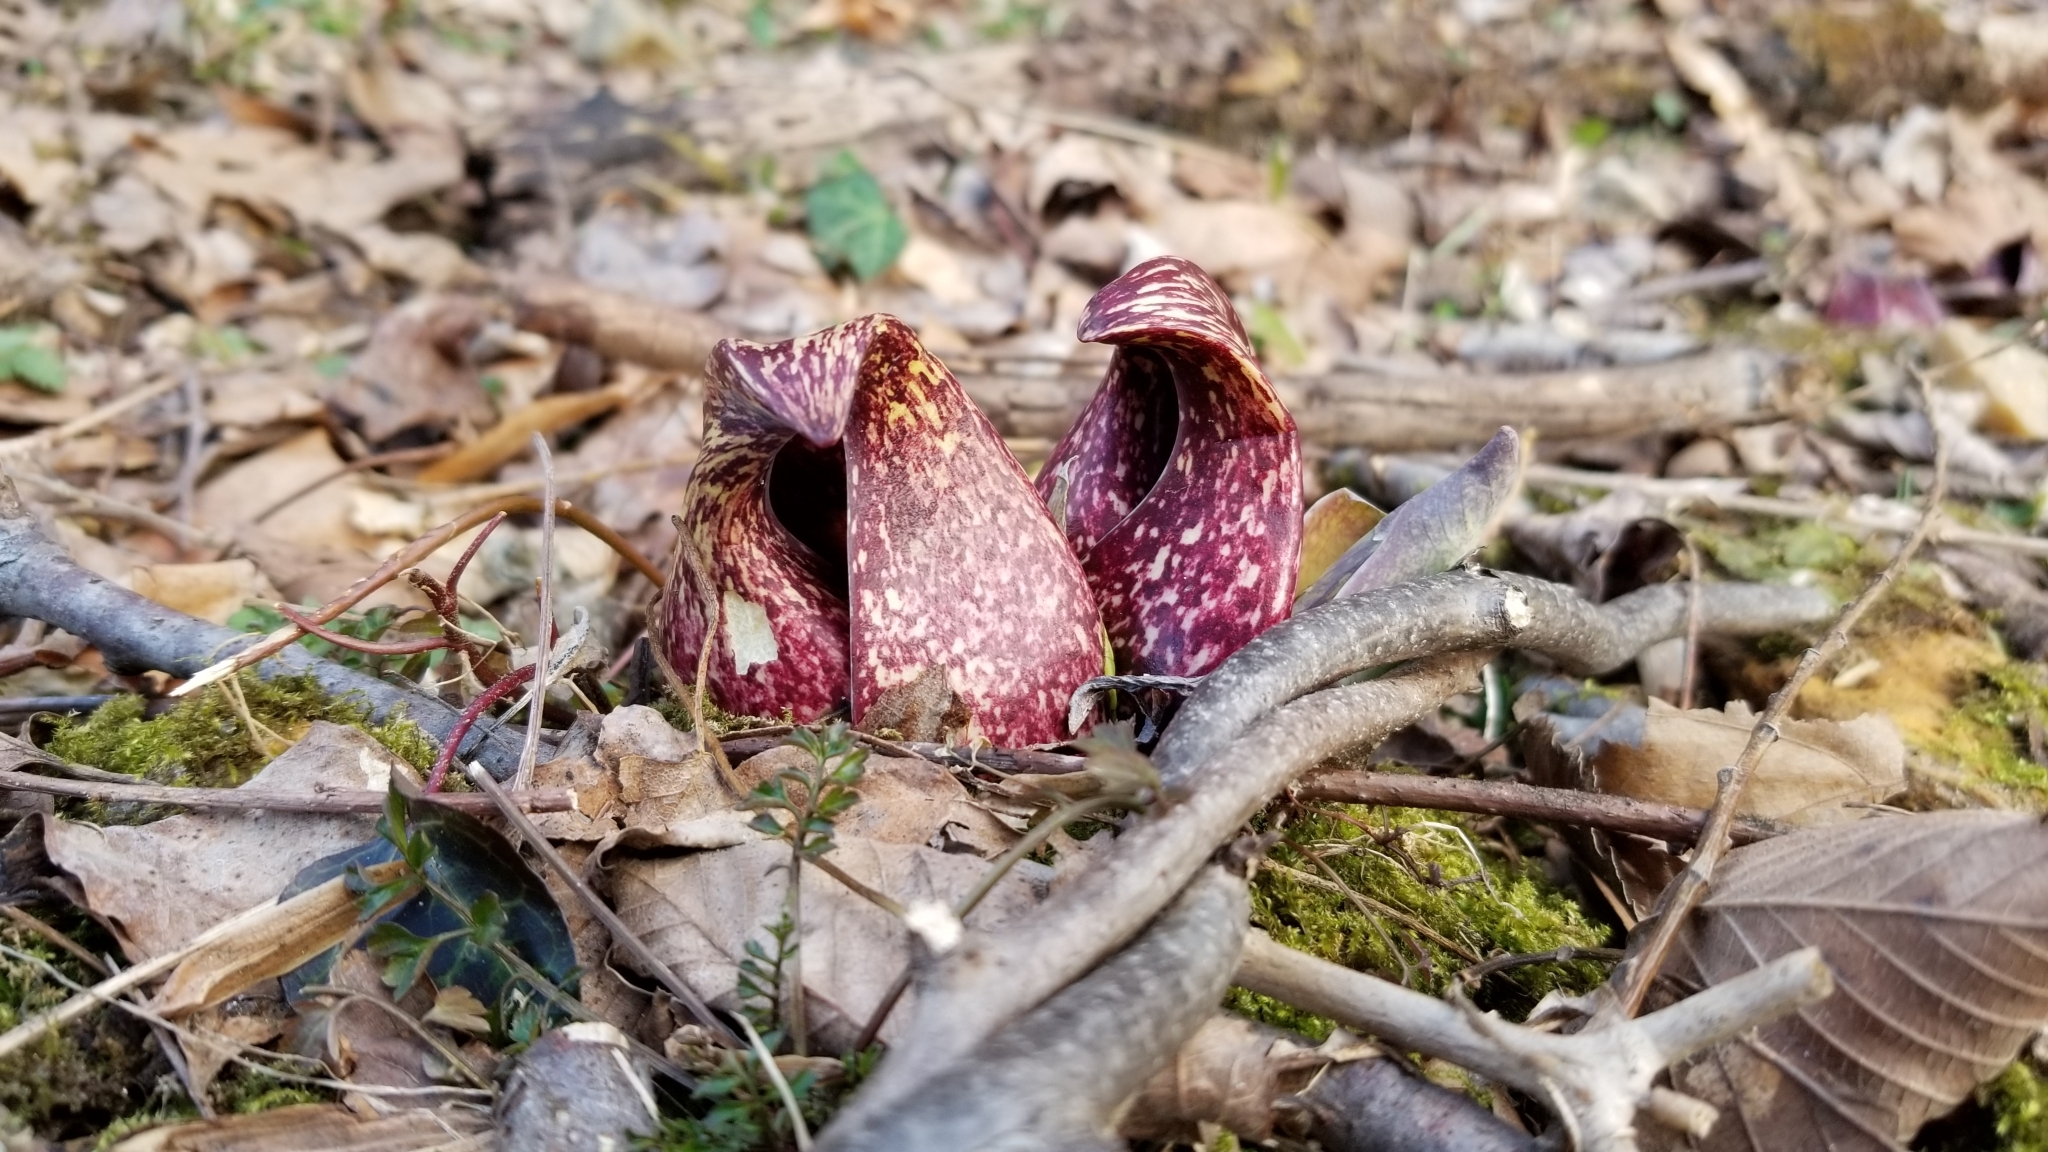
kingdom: Plantae
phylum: Tracheophyta
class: Liliopsida
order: Alismatales
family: Araceae
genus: Symplocarpus
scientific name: Symplocarpus foetidus
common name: Eastern skunk cabbage
